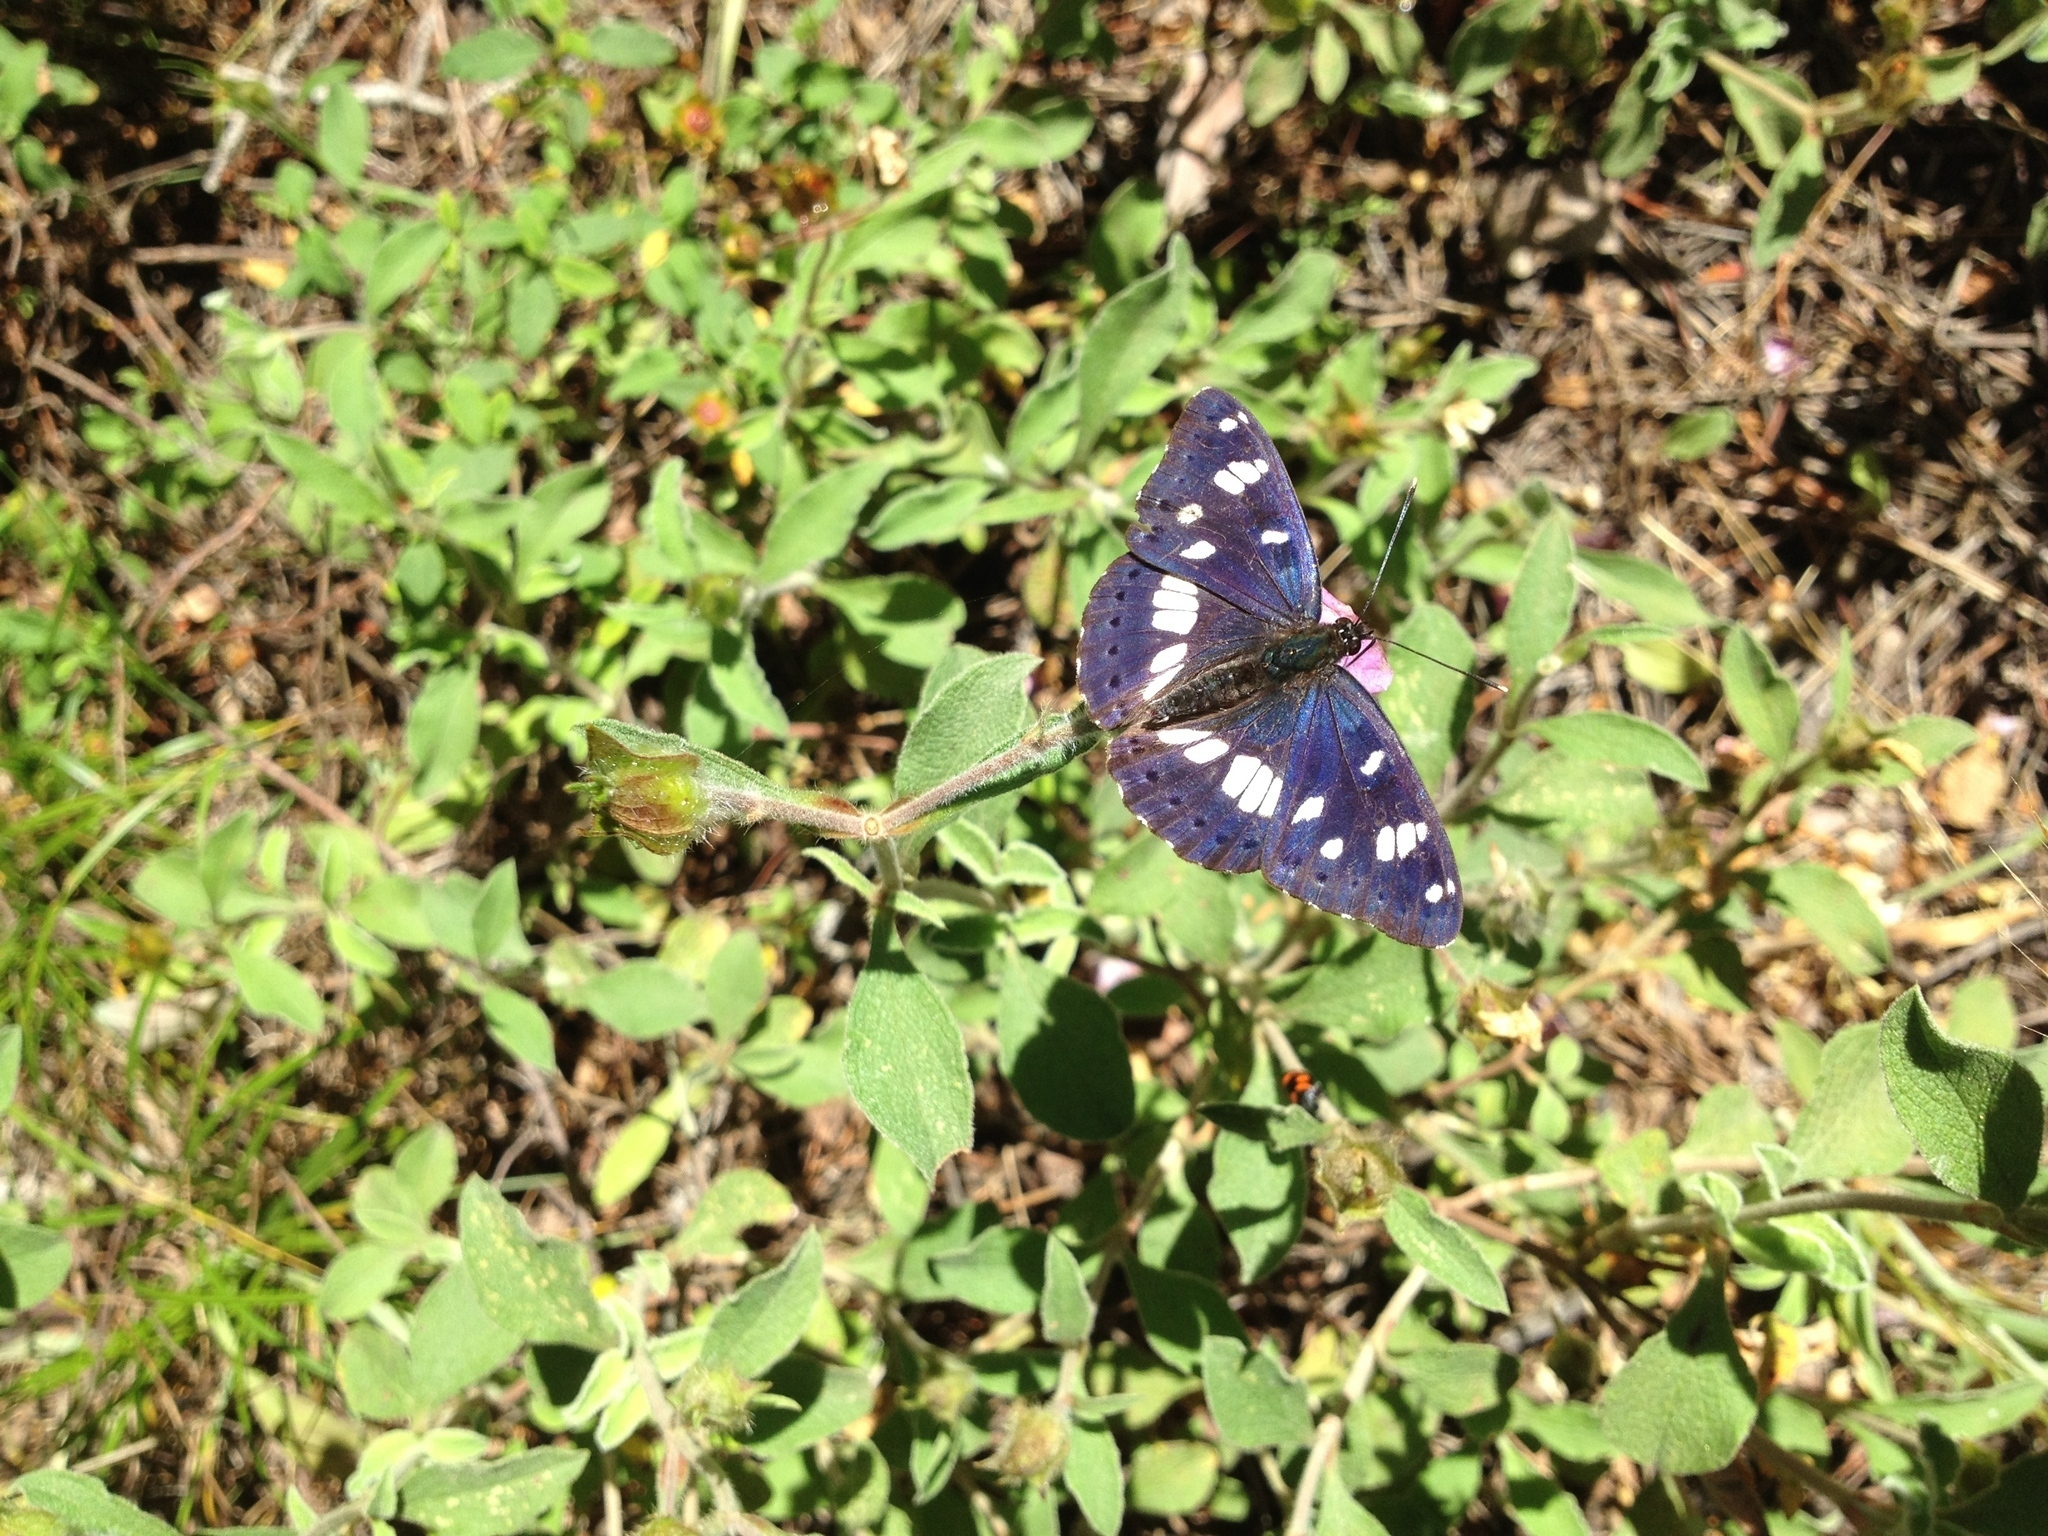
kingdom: Animalia
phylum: Arthropoda
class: Insecta
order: Lepidoptera
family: Nymphalidae
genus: Limenitis
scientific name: Limenitis reducta
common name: Southern white admiral
